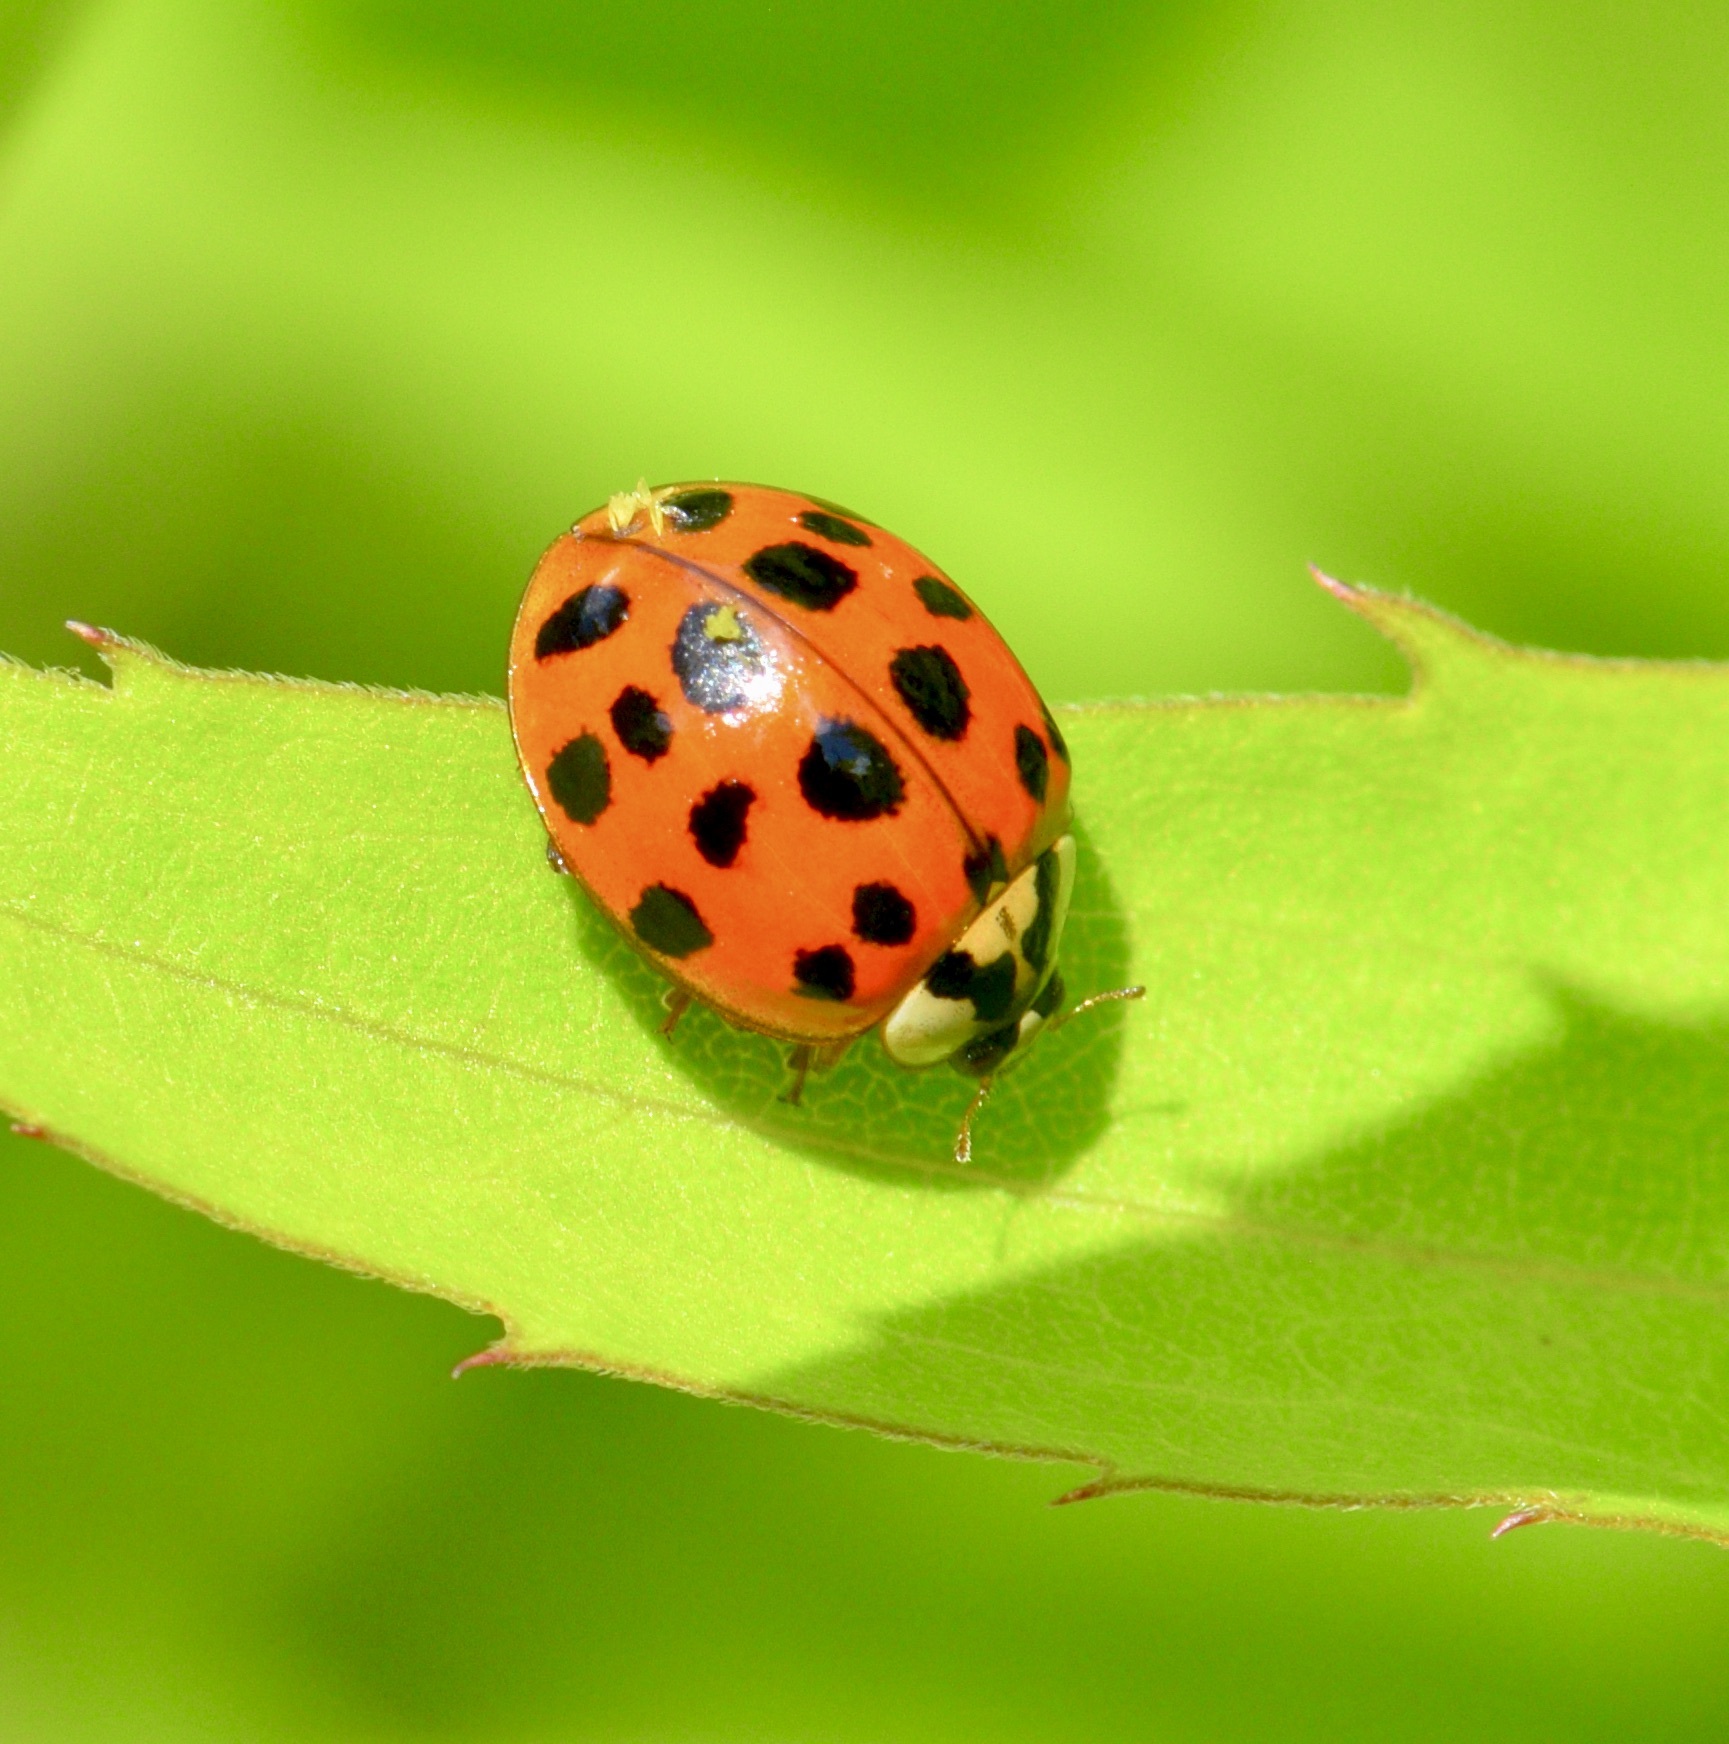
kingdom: Animalia
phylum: Arthropoda
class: Insecta
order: Coleoptera
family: Coccinellidae
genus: Harmonia
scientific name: Harmonia axyridis
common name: Harlequin ladybird
